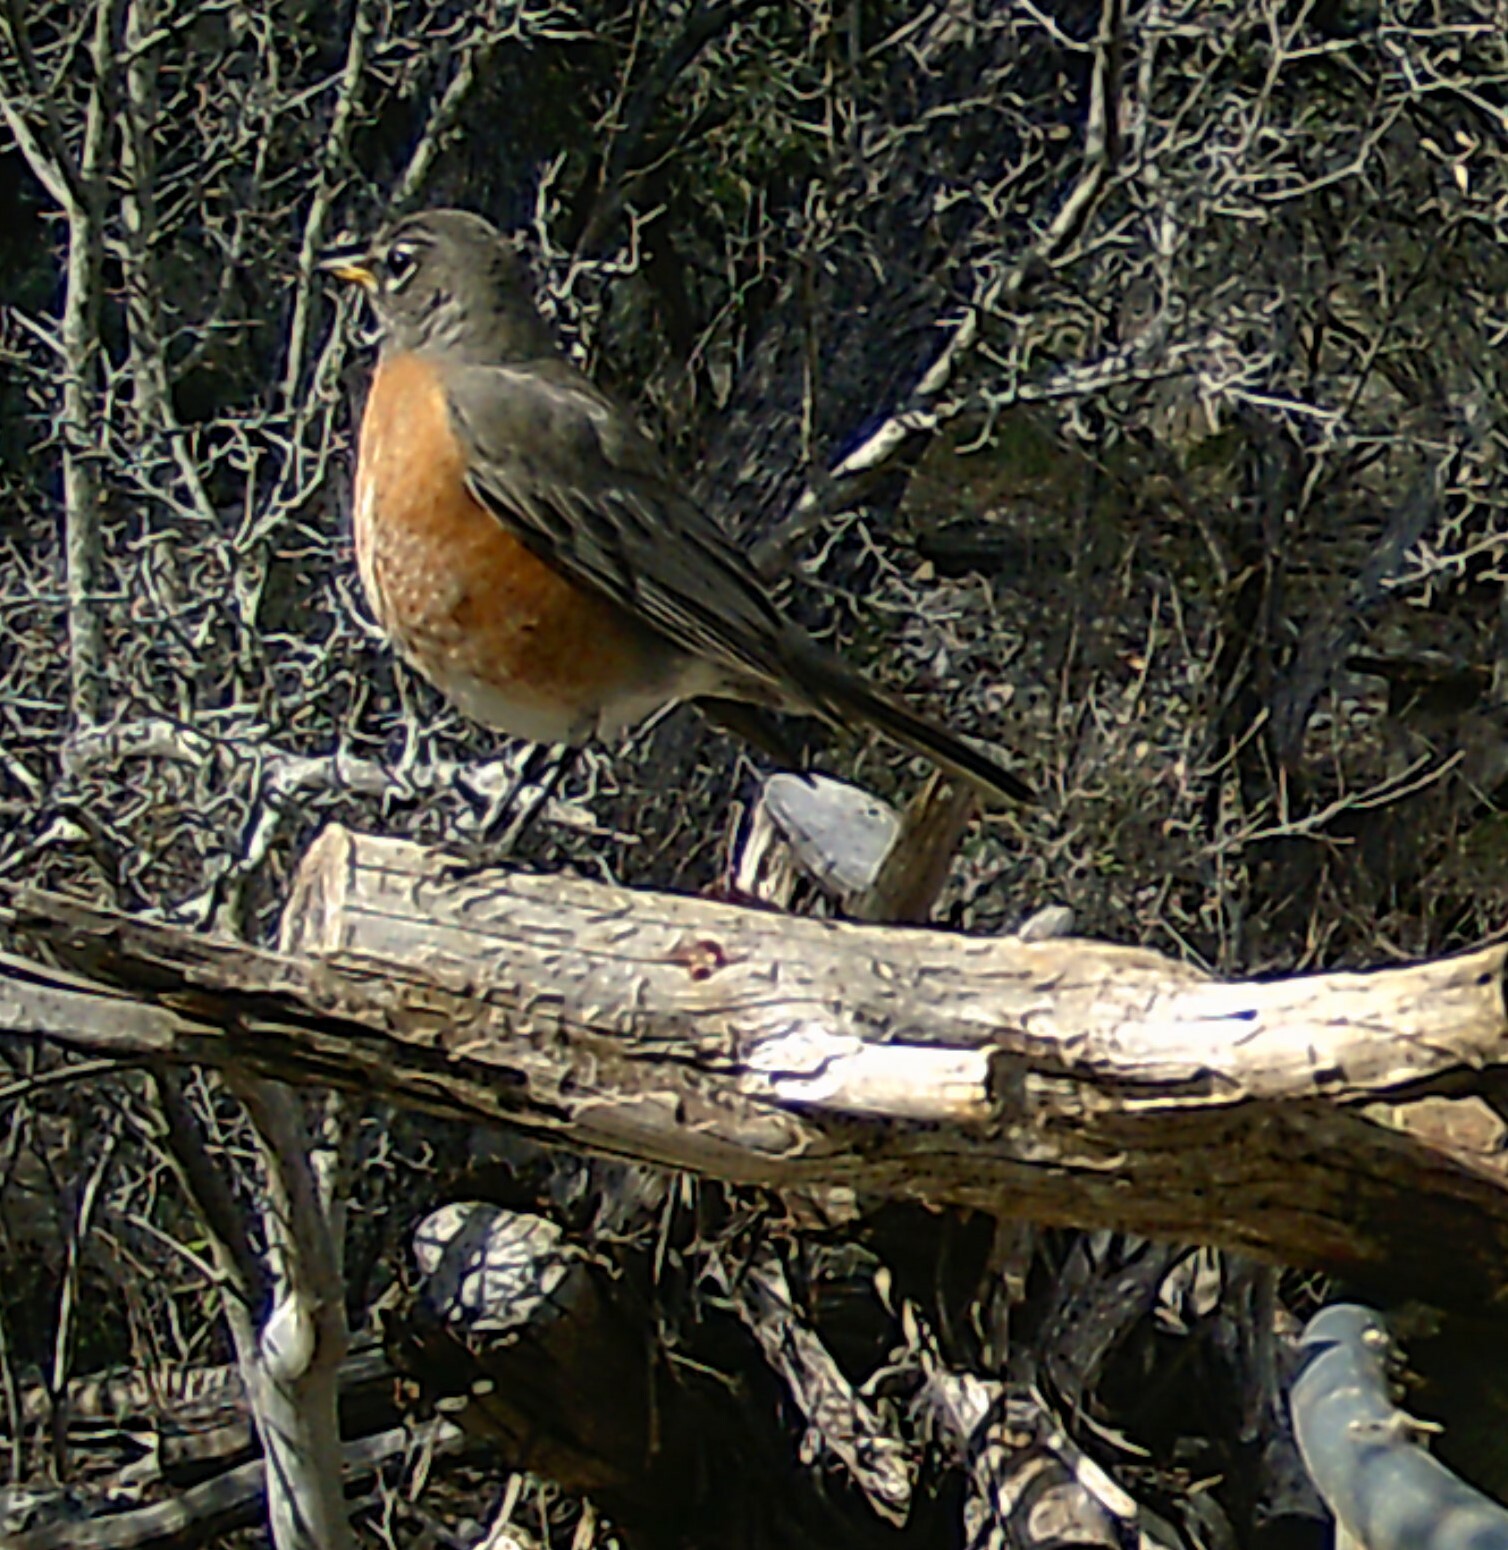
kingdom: Animalia
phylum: Chordata
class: Aves
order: Passeriformes
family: Turdidae
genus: Turdus
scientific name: Turdus migratorius
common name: American robin
